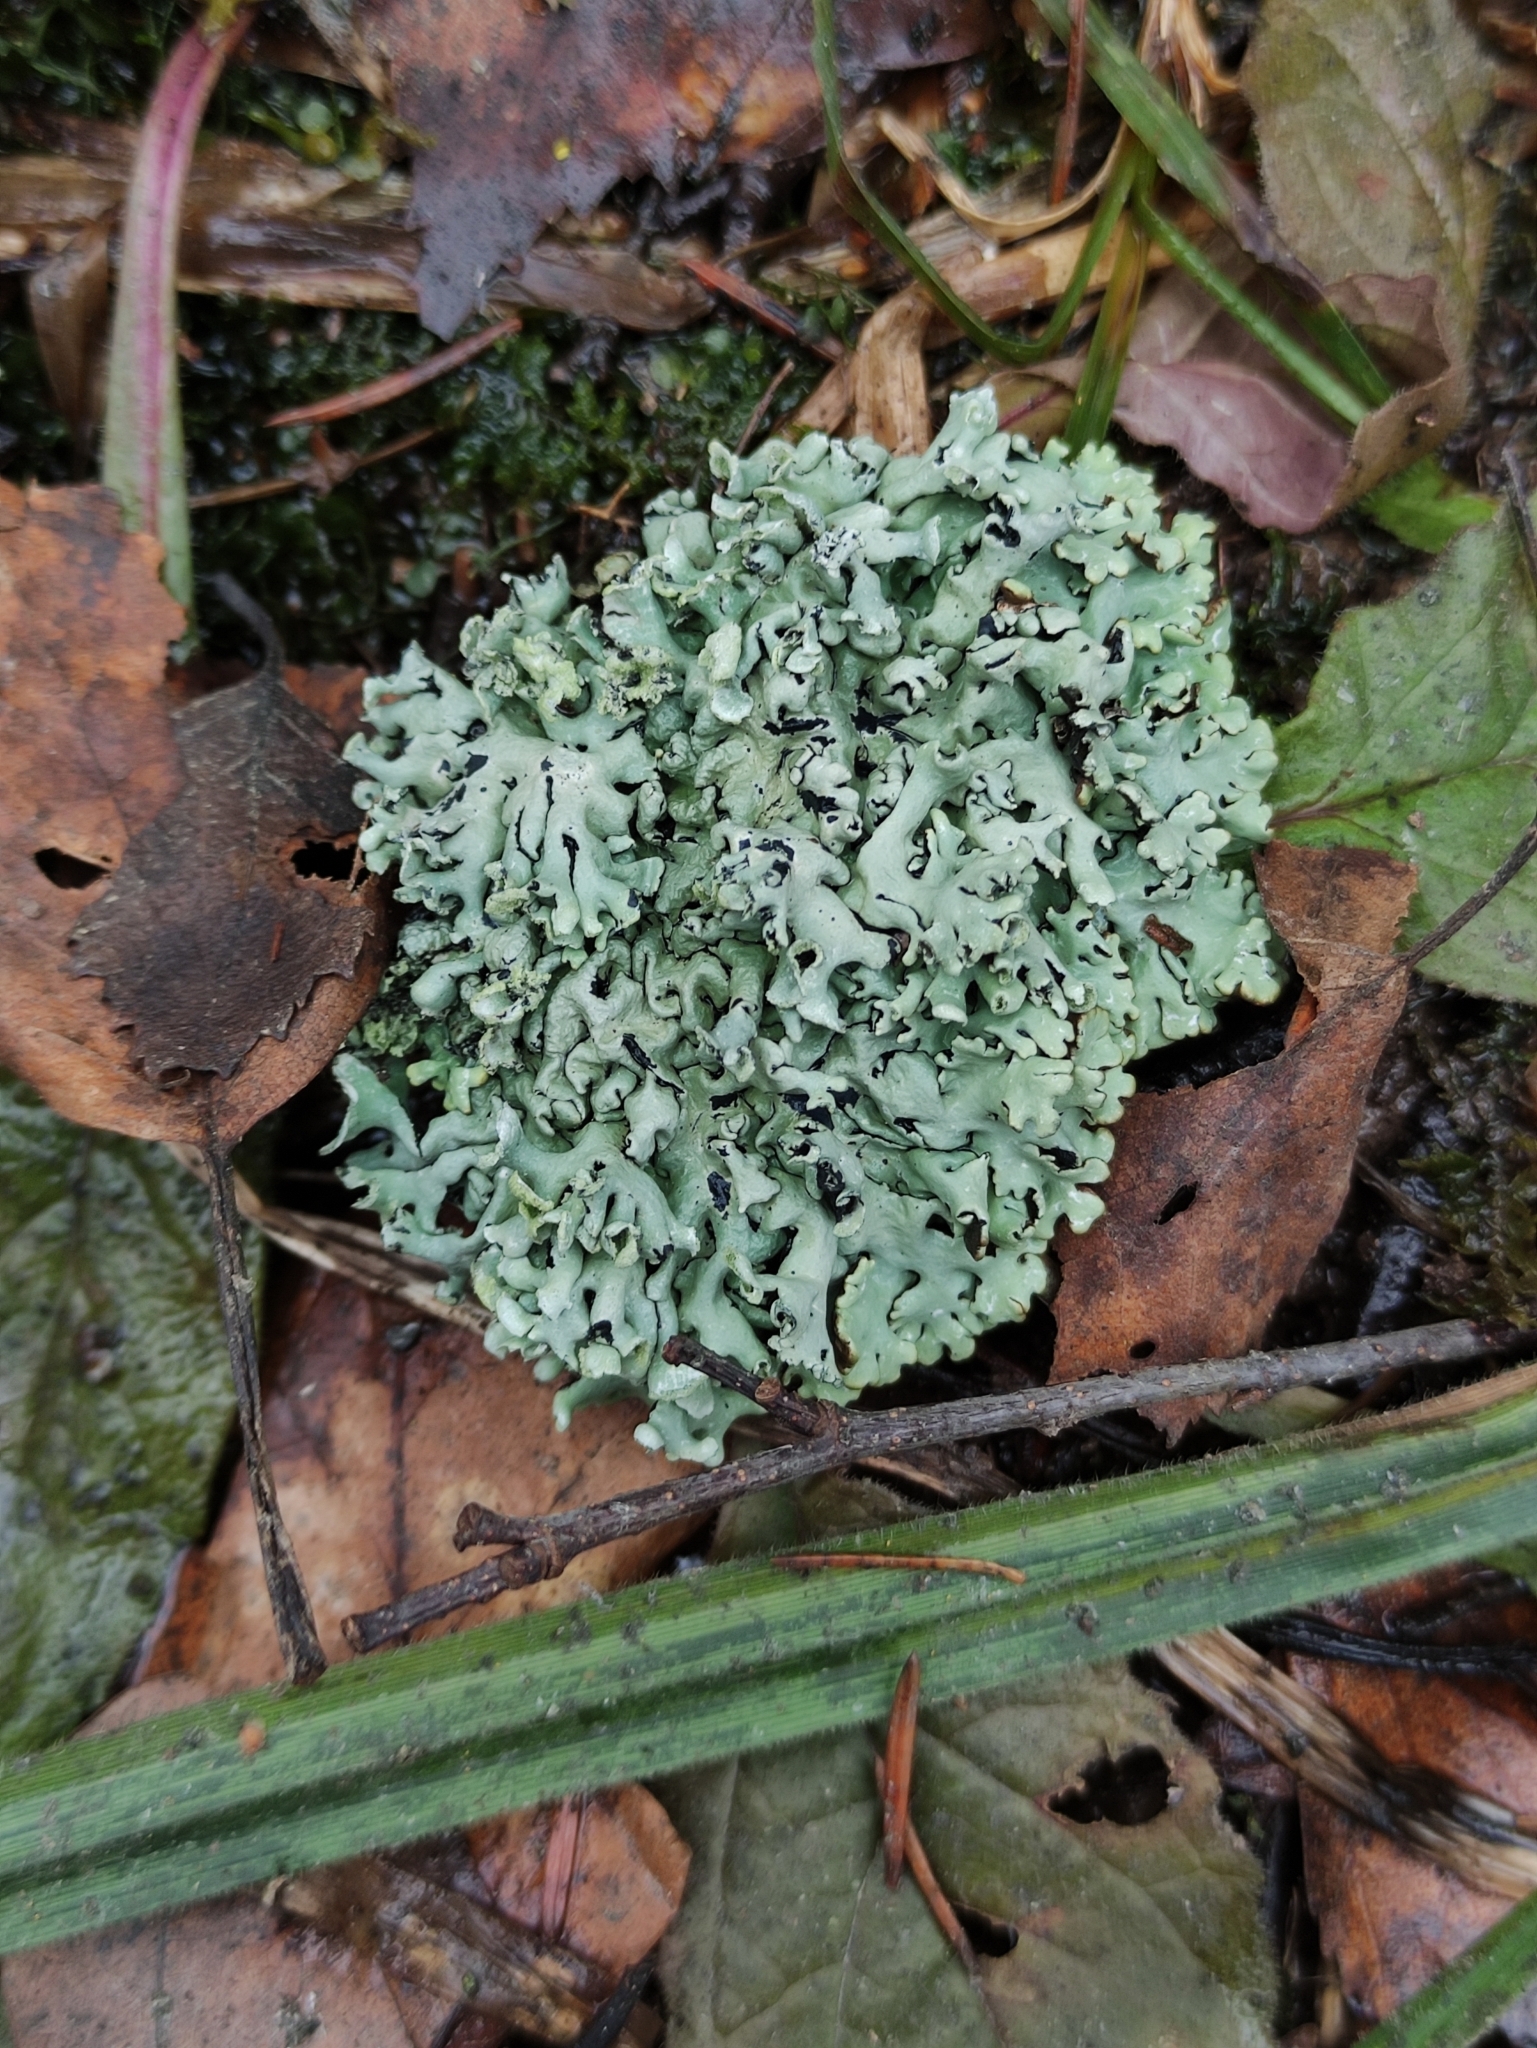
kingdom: Fungi
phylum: Ascomycota
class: Lecanoromycetes
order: Lecanorales
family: Parmeliaceae
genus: Hypogymnia
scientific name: Hypogymnia physodes
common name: Dark crottle
